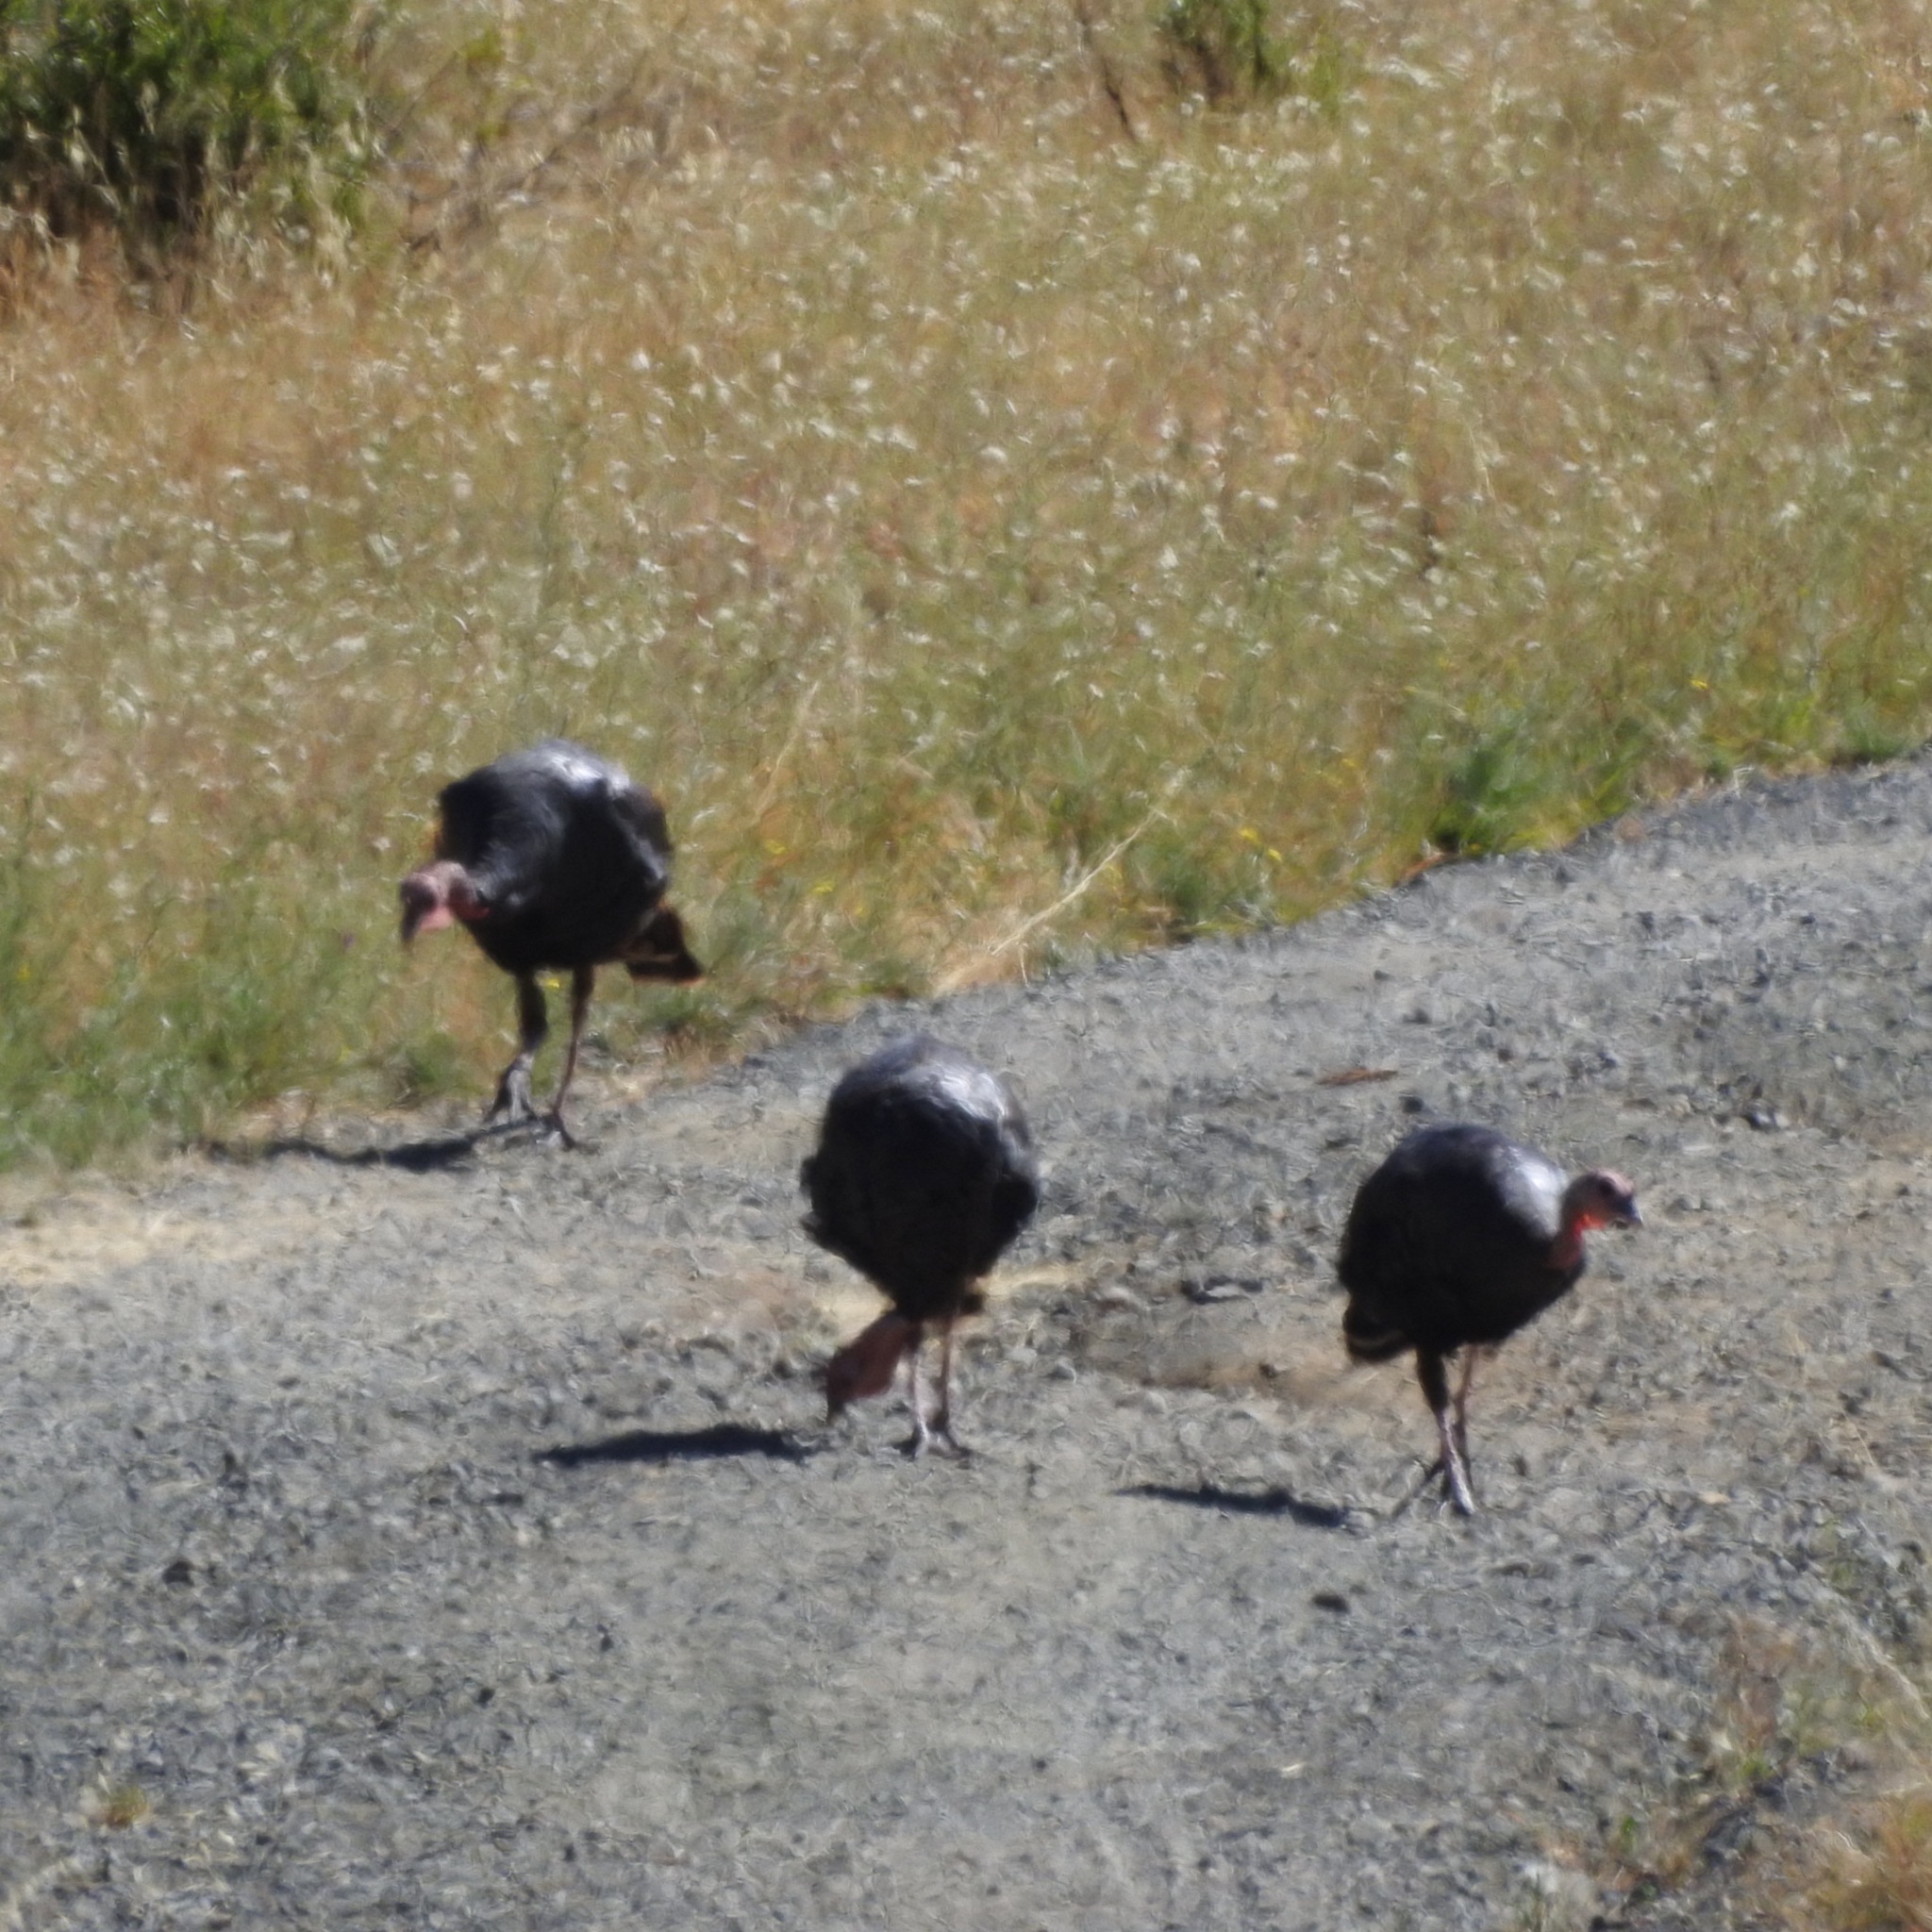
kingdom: Animalia
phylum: Chordata
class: Aves
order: Galliformes
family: Phasianidae
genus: Meleagris
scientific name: Meleagris gallopavo
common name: Wild turkey
